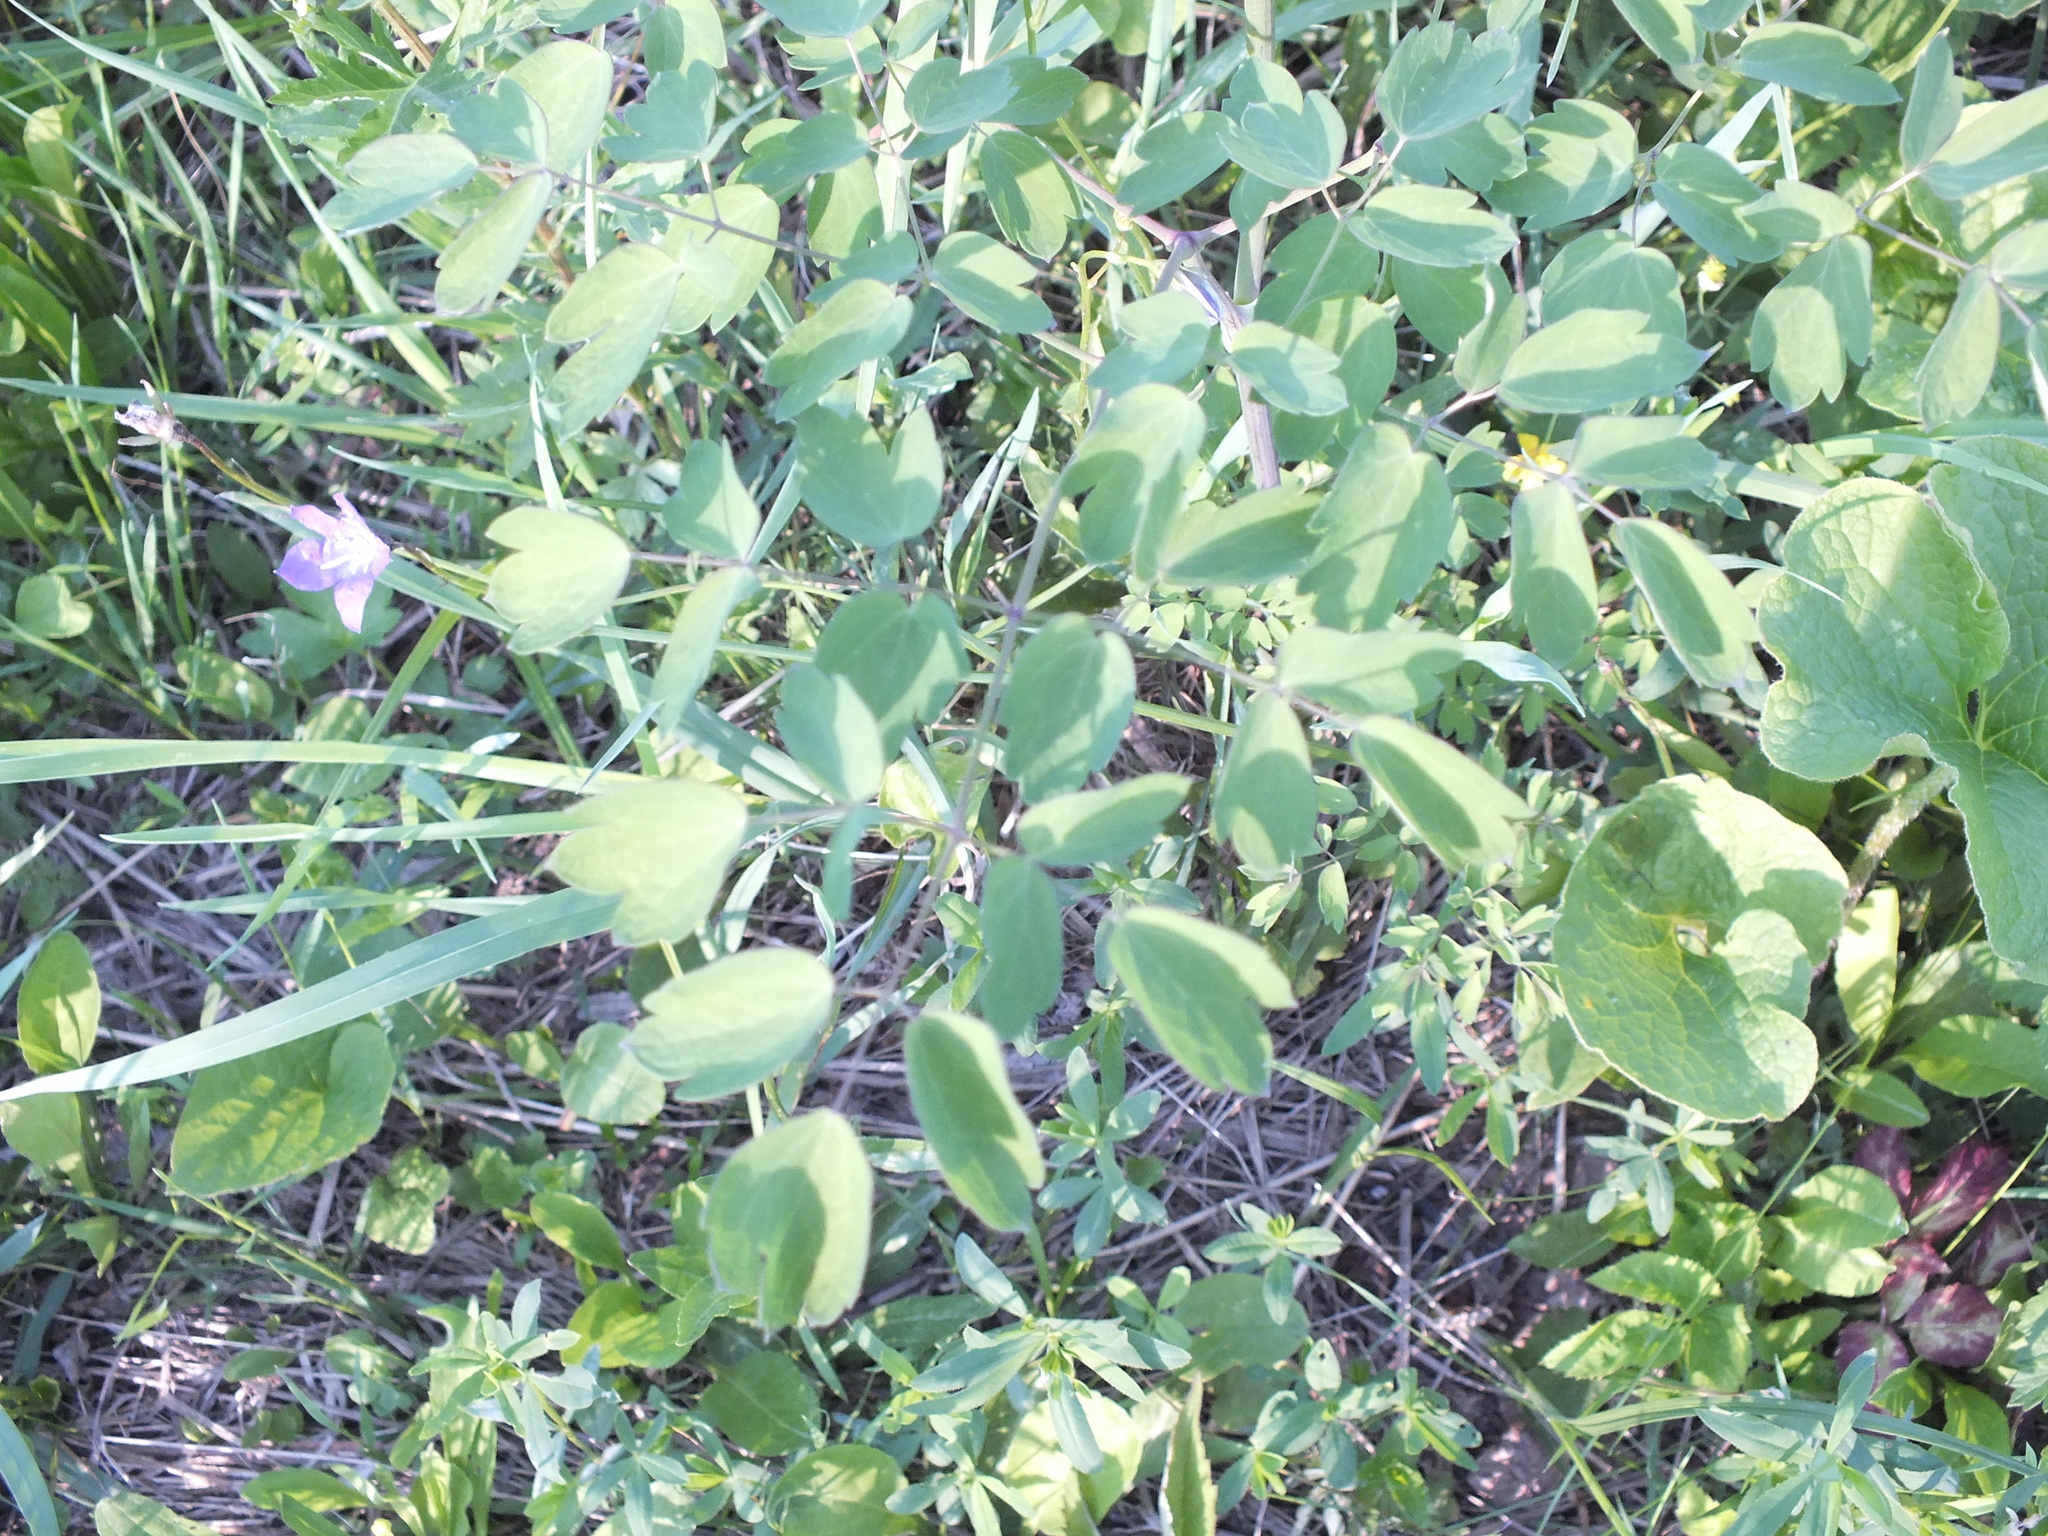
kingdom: Plantae
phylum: Tracheophyta
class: Magnoliopsida
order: Ranunculales
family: Ranunculaceae
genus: Thalictrum
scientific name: Thalictrum aquilegiifolium
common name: French meadow-rue
